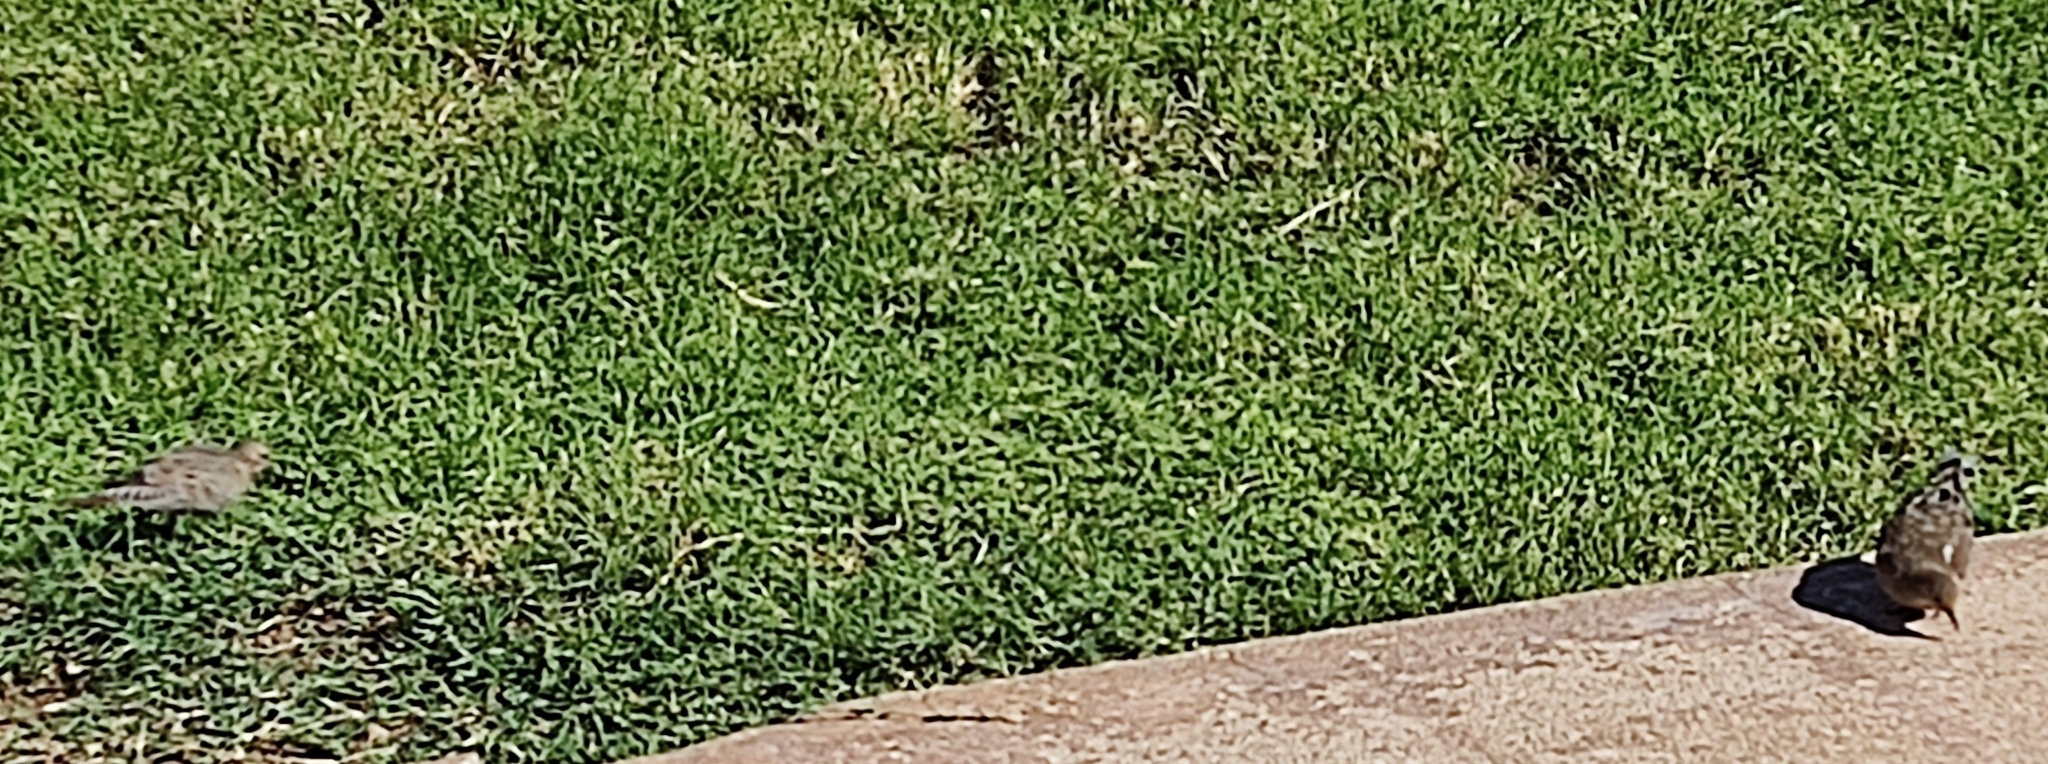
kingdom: Animalia
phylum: Chordata
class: Aves
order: Columbiformes
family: Columbidae
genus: Zenaida
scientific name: Zenaida macroura
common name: Mourning dove
